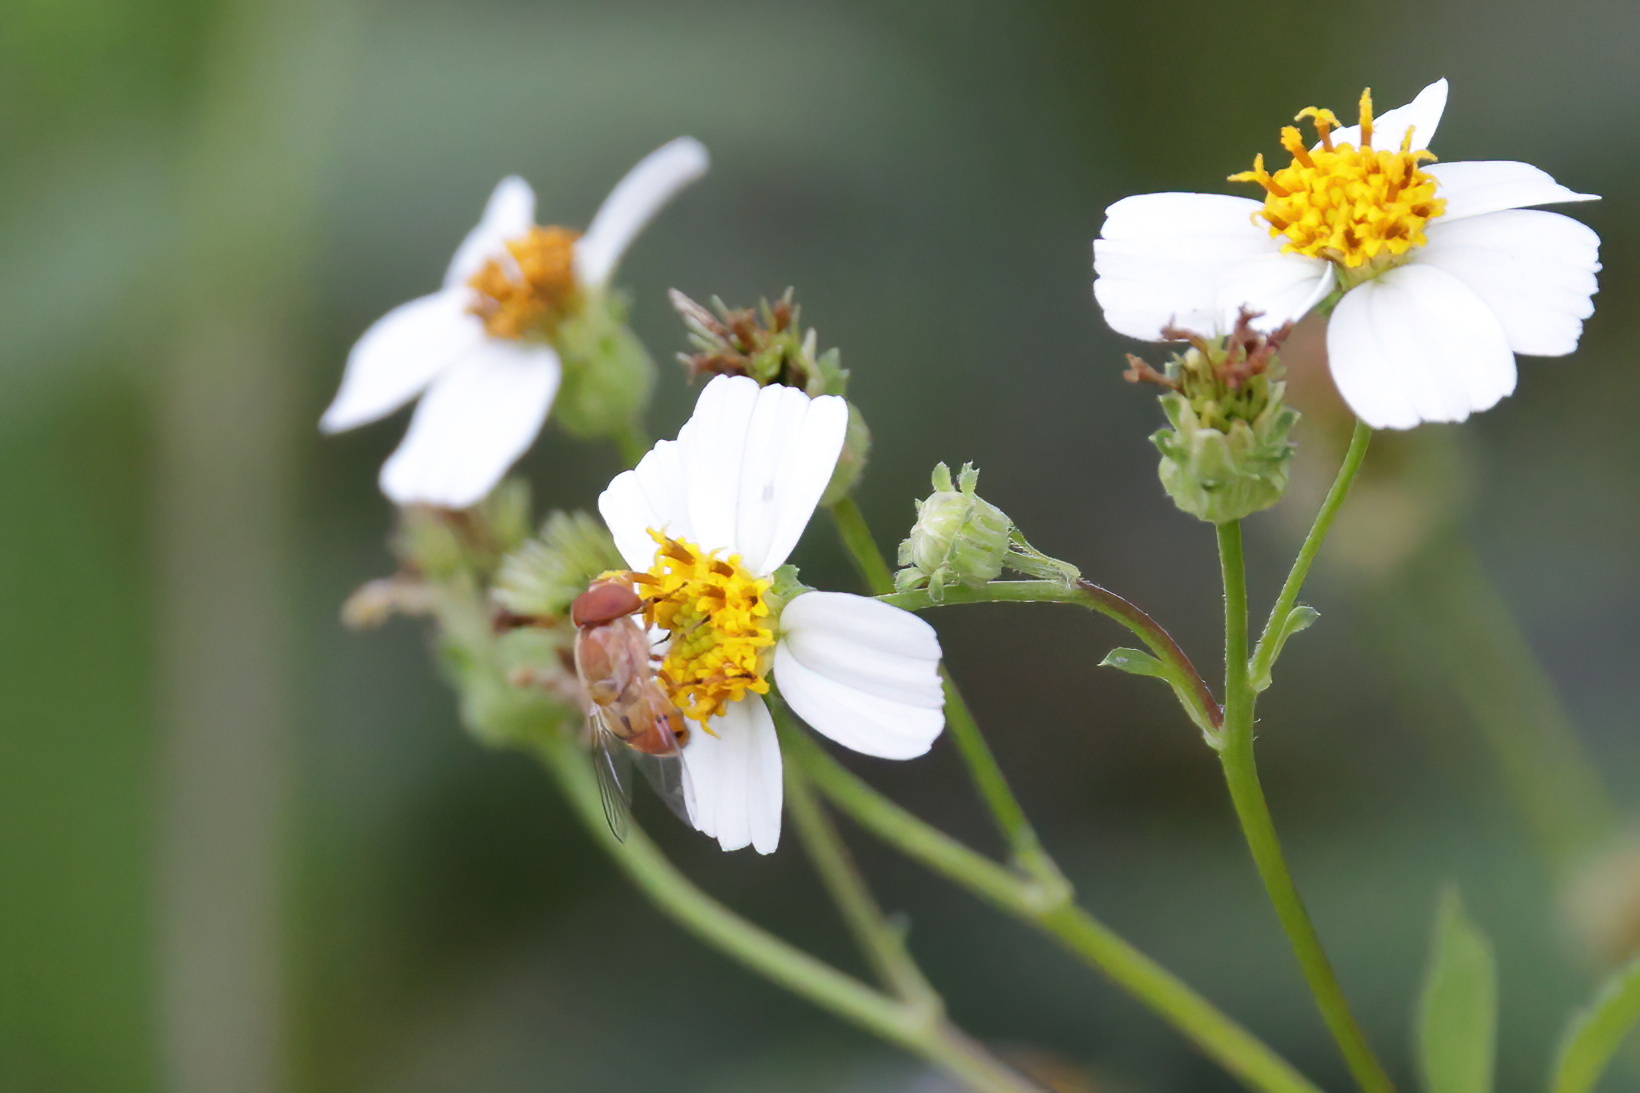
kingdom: Animalia
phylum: Arthropoda
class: Insecta
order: Diptera
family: Syrphidae
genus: Copestylum
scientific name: Copestylum sexmaculatum
